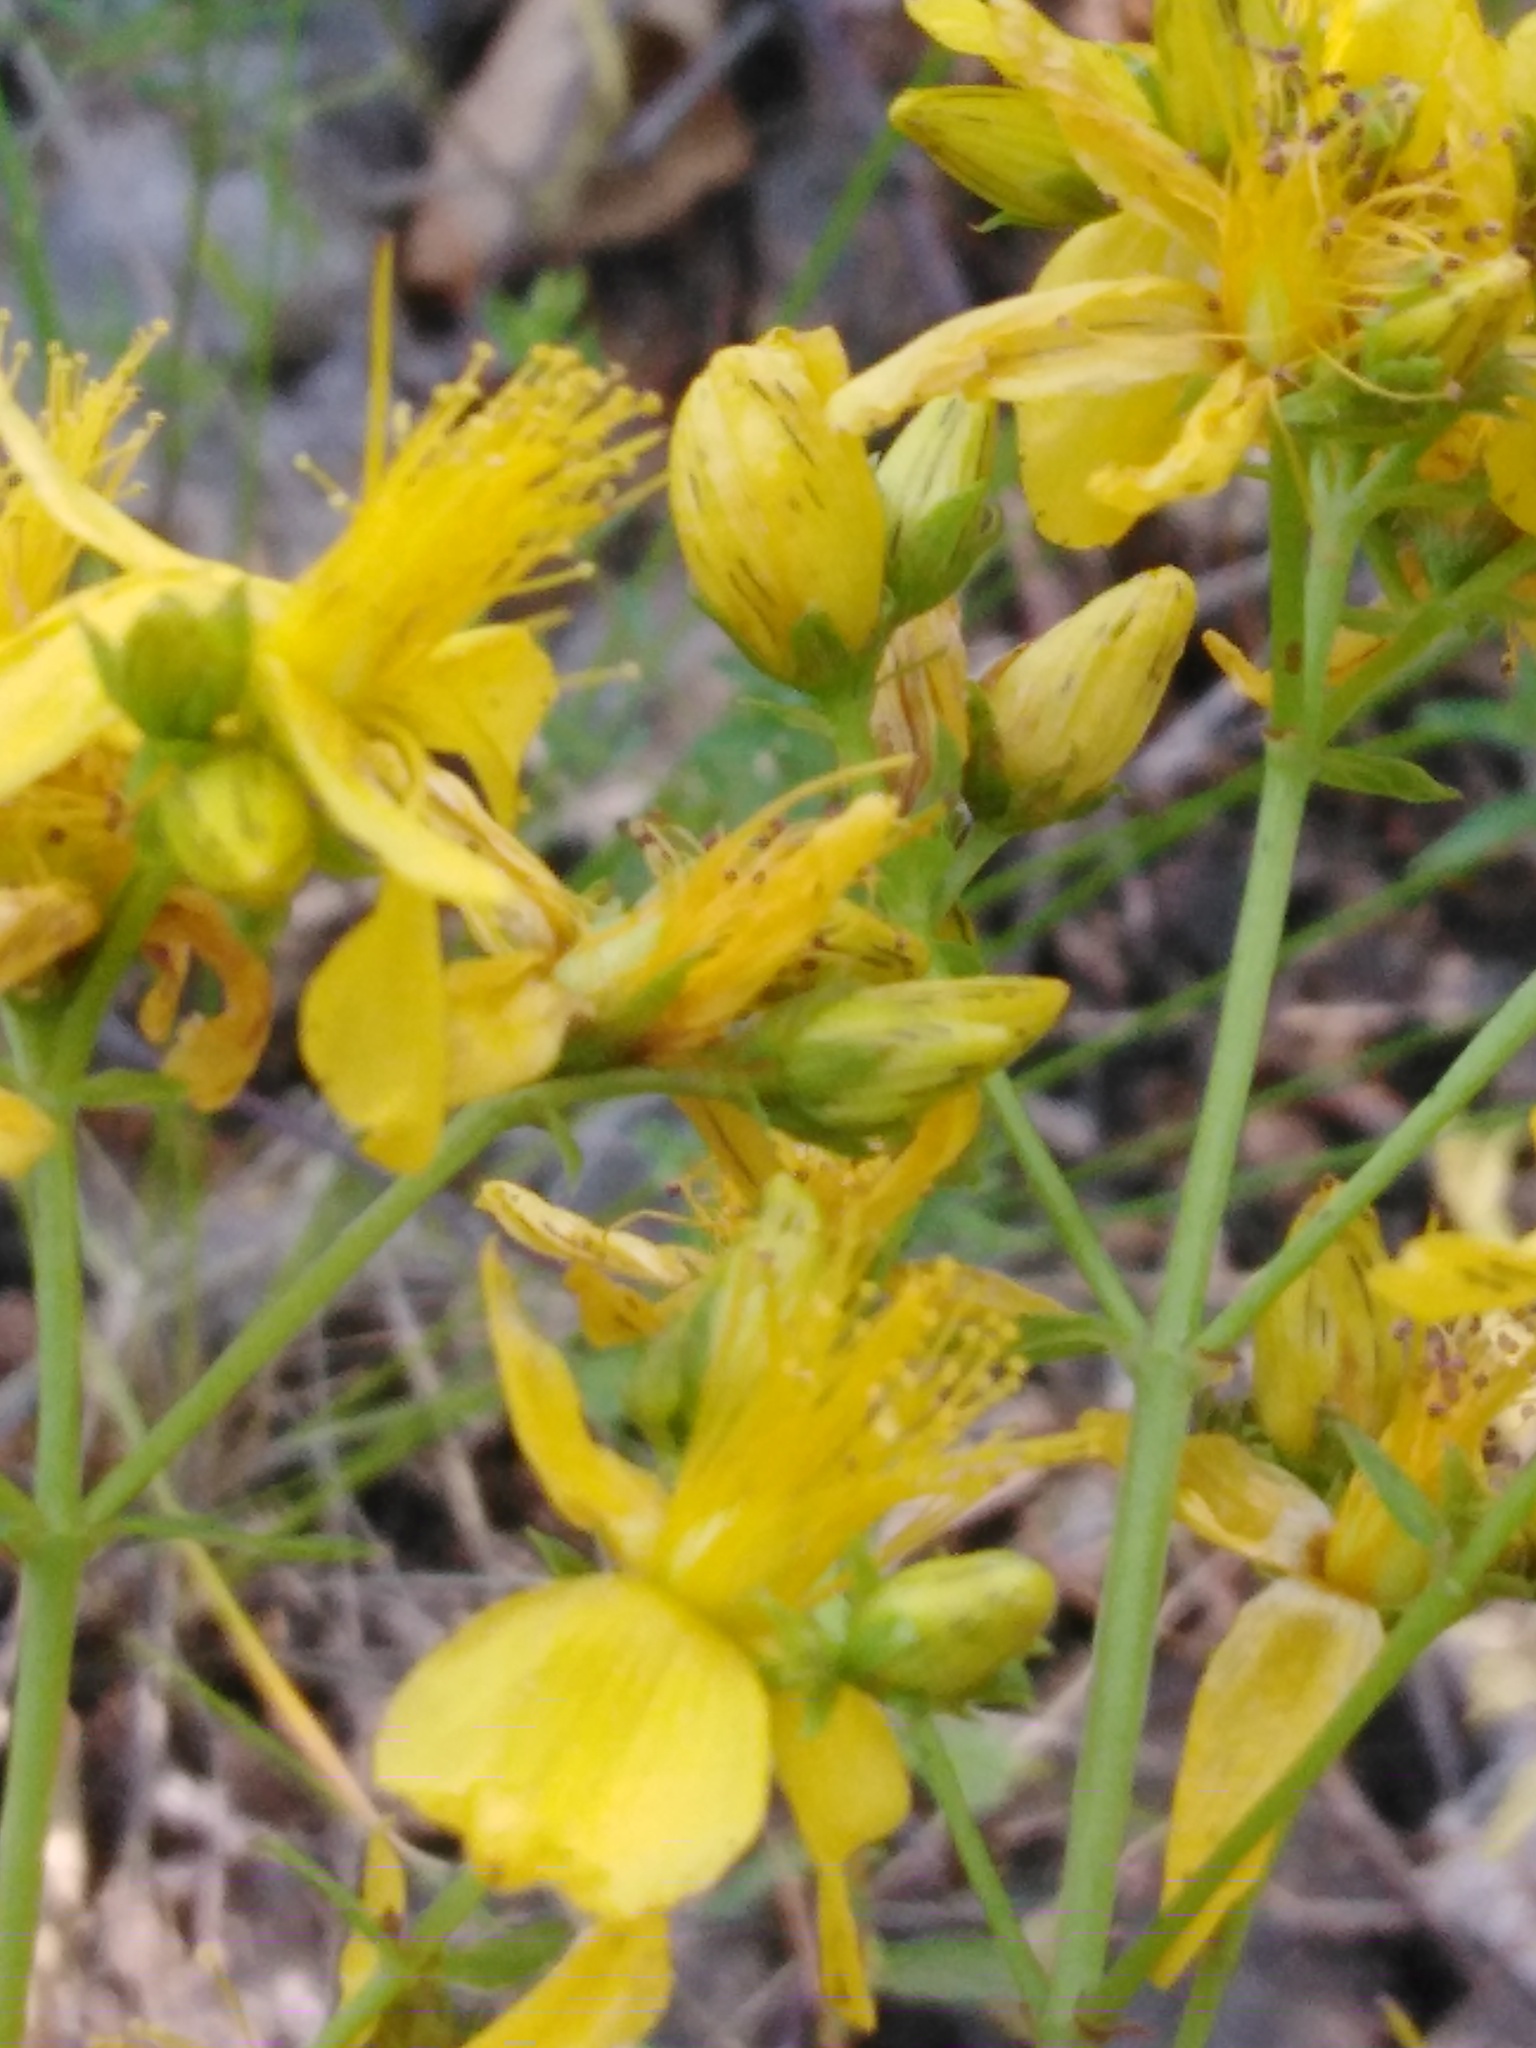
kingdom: Plantae
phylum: Tracheophyta
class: Magnoliopsida
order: Malpighiales
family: Hypericaceae
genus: Hypericum
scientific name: Hypericum perforatum
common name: Common st. johnswort
